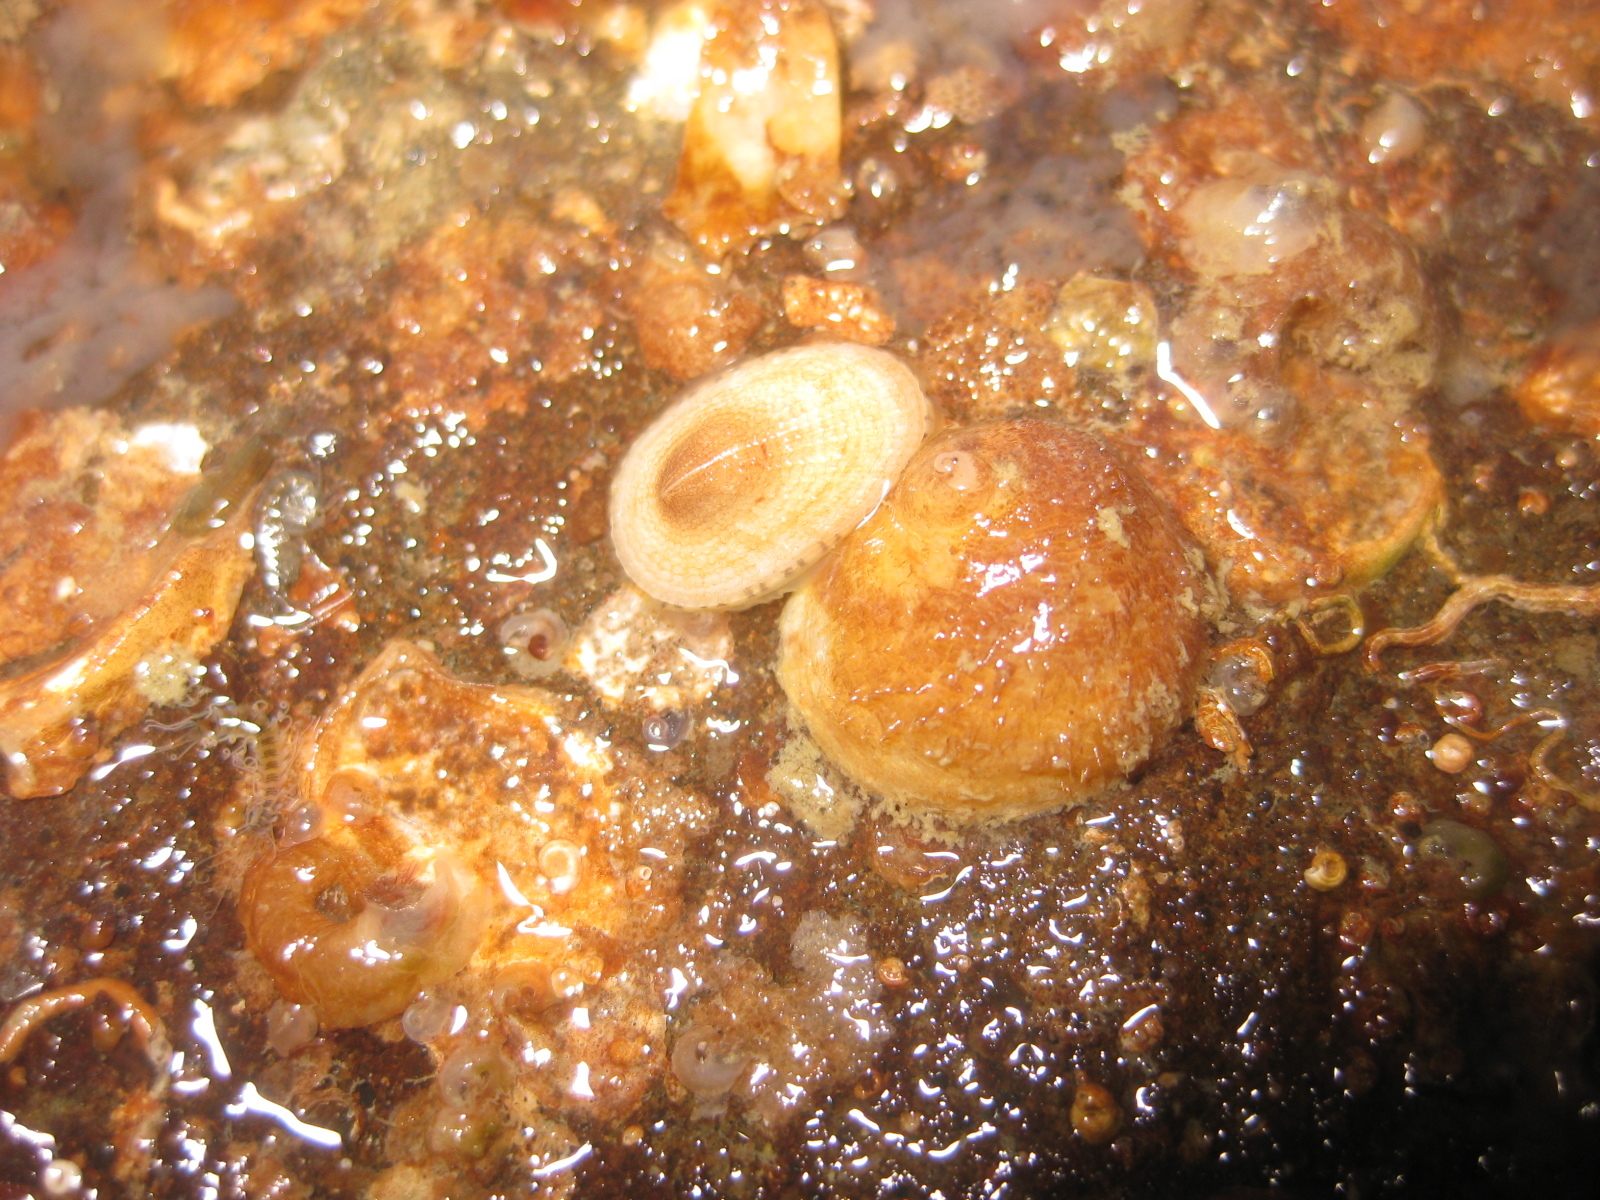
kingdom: Animalia
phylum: Mollusca
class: Gastropoda
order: Littorinimorpha
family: Calyptraeidae
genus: Sigapatella
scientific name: Sigapatella novaezelandiae
